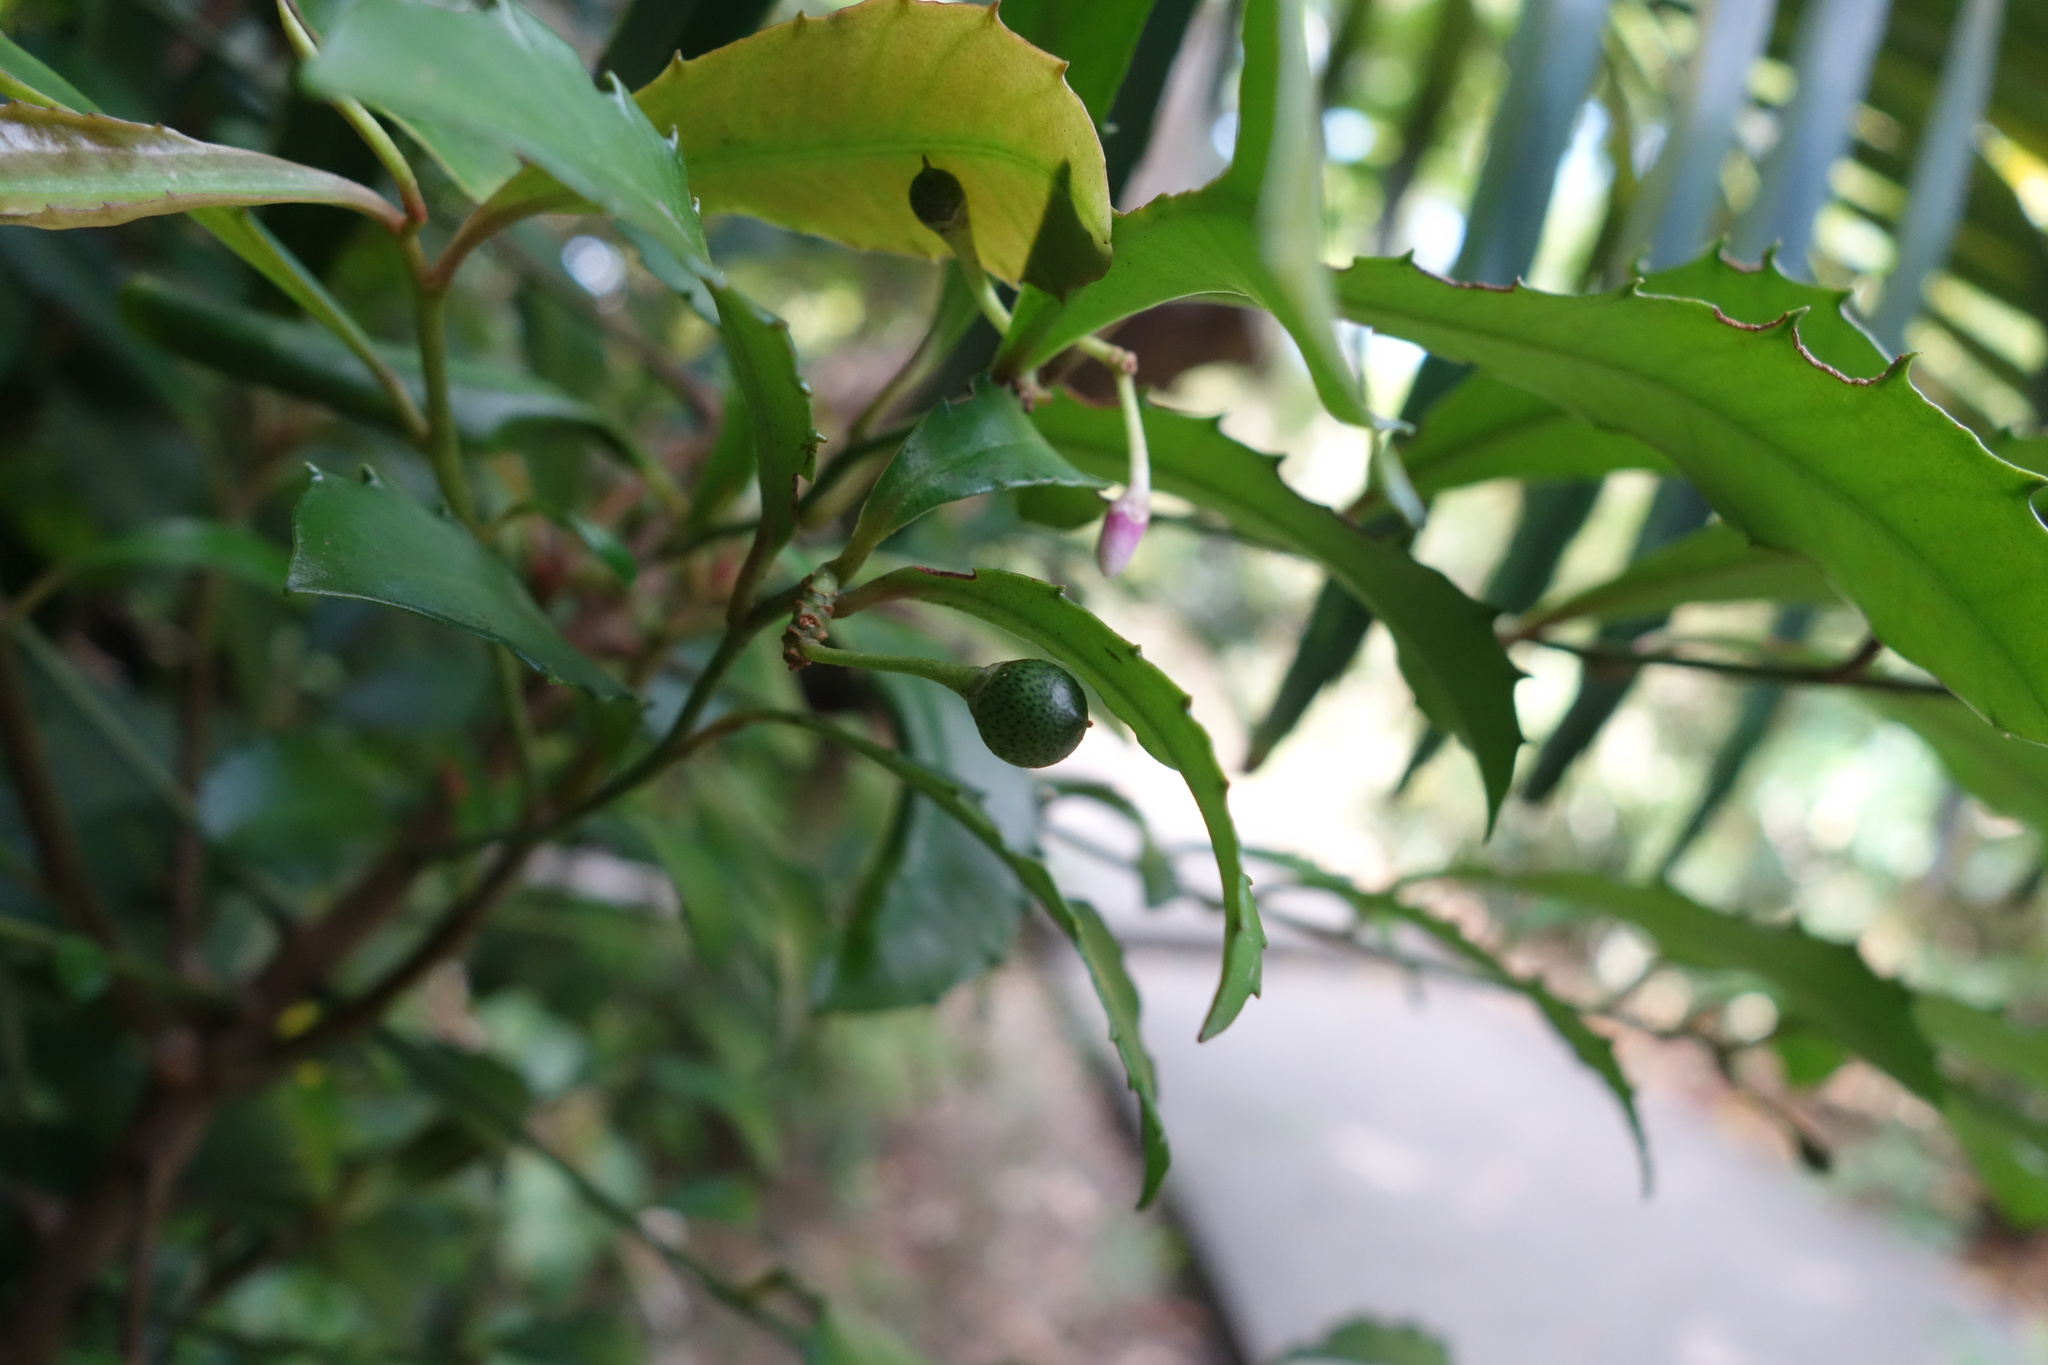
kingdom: Plantae
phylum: Tracheophyta
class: Magnoliopsida
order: Ericales
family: Primulaceae
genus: Ardisia
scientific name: Ardisia cornudentata
